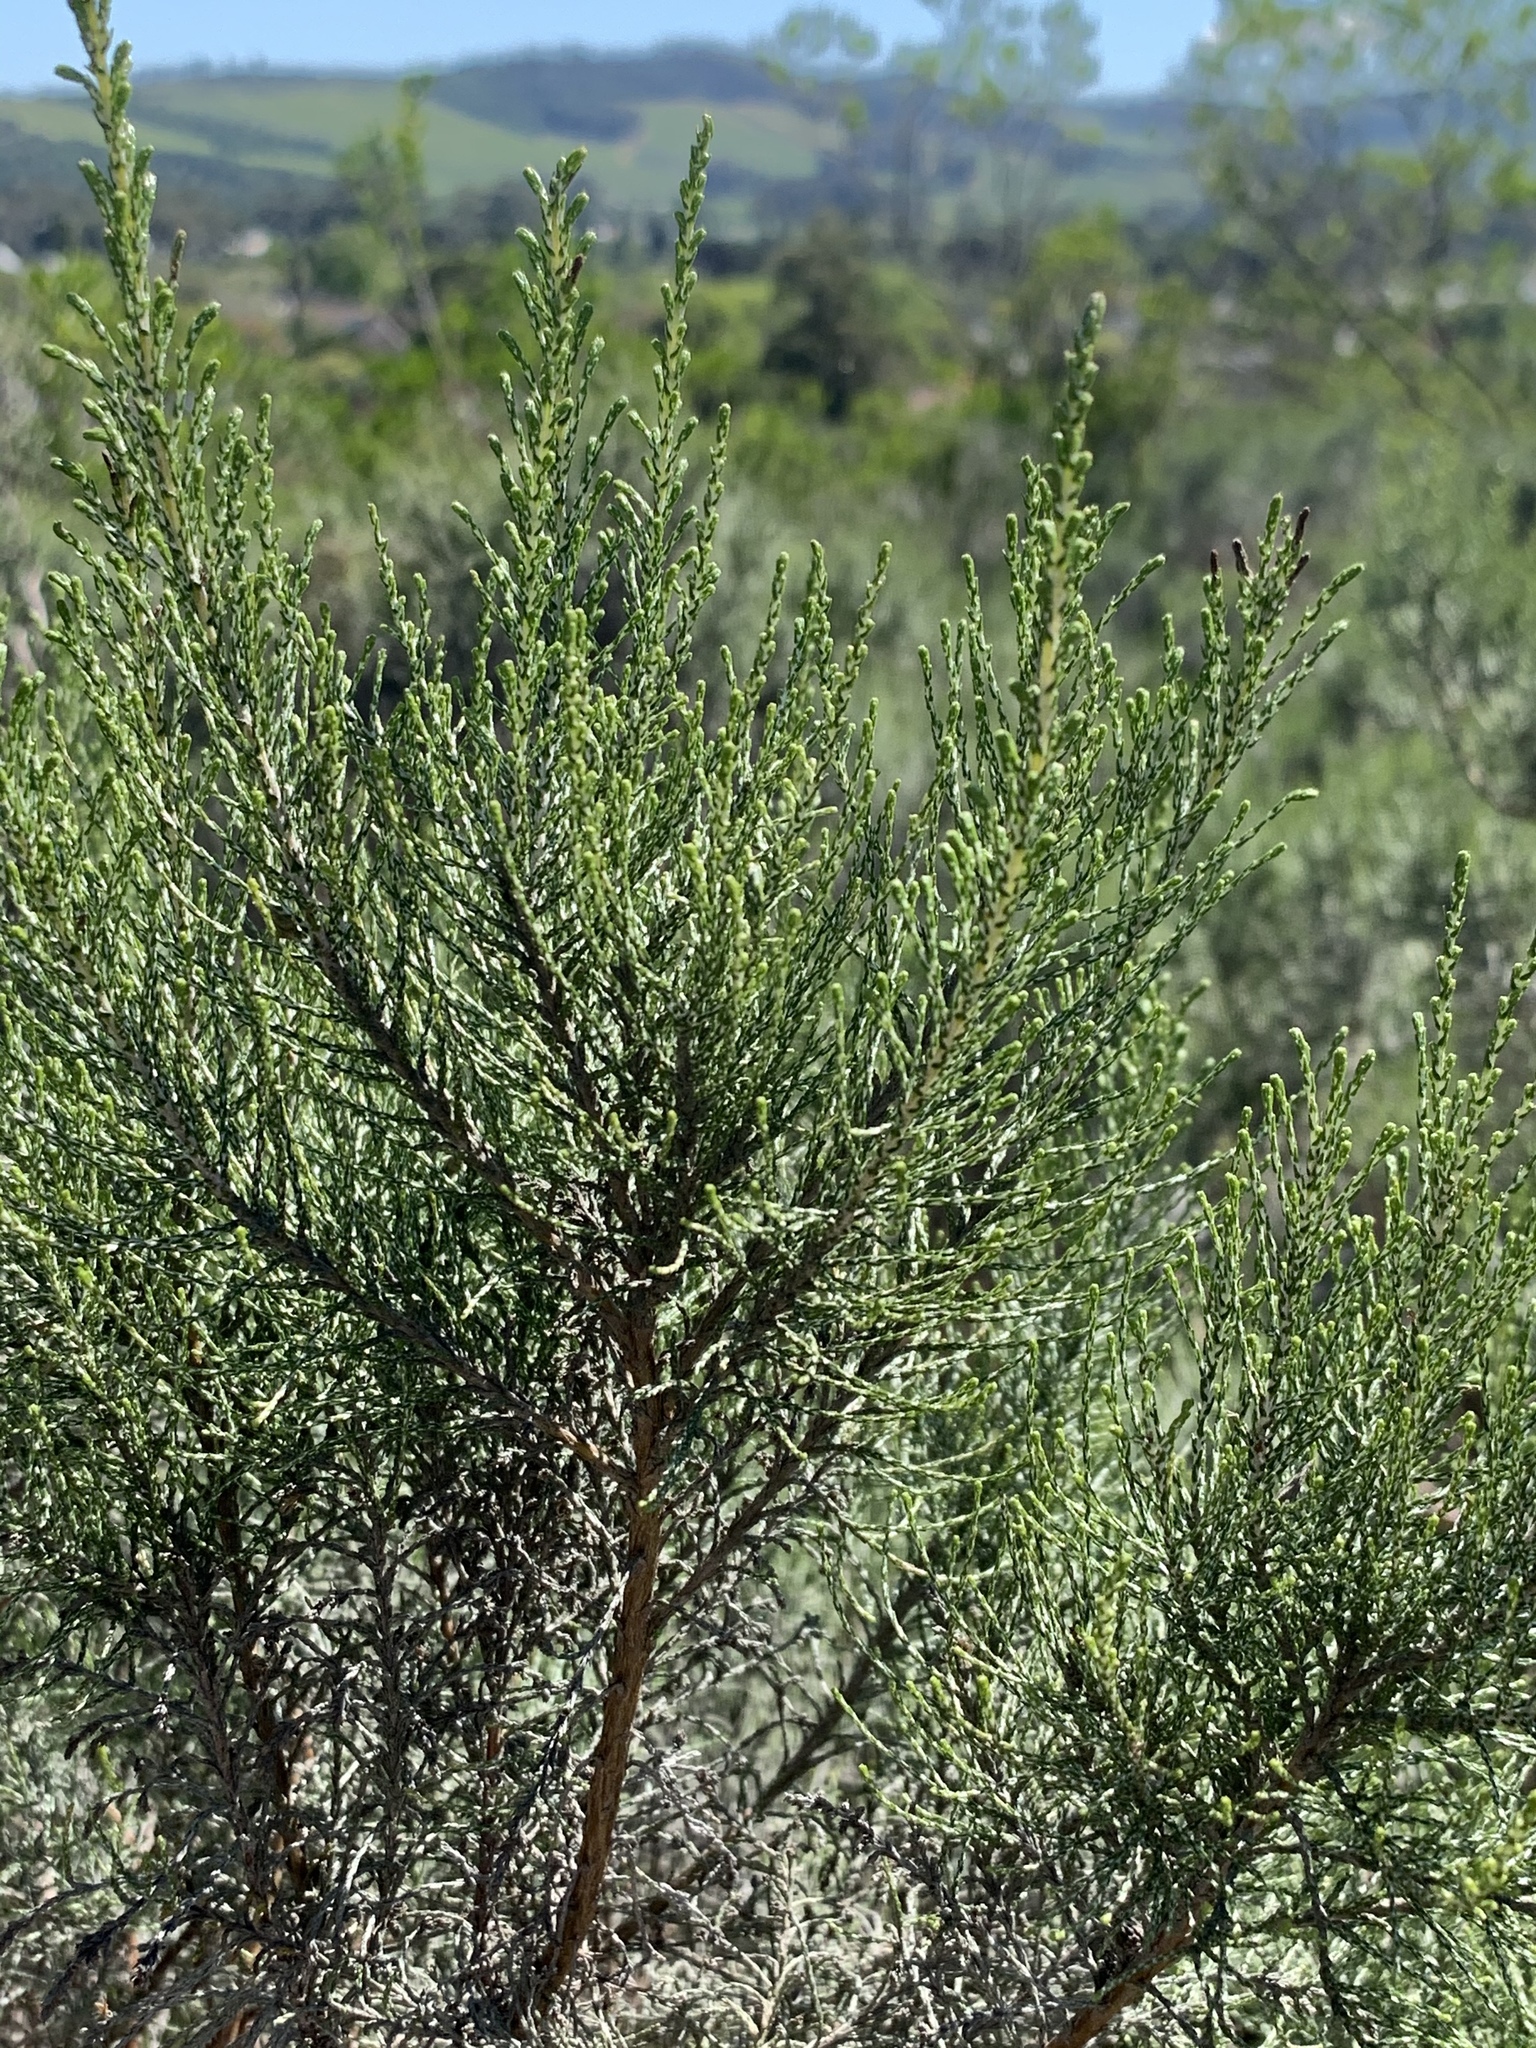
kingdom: Plantae
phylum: Tracheophyta
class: Magnoliopsida
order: Asterales
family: Asteraceae
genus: Dicerothamnus
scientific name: Dicerothamnus rhinocerotis
